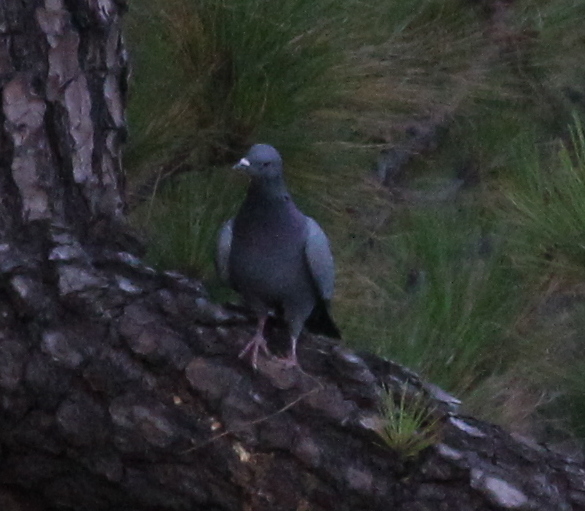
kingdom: Animalia
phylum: Chordata
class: Aves
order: Columbiformes
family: Columbidae
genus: Columba
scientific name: Columba livia
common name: Rock pigeon
